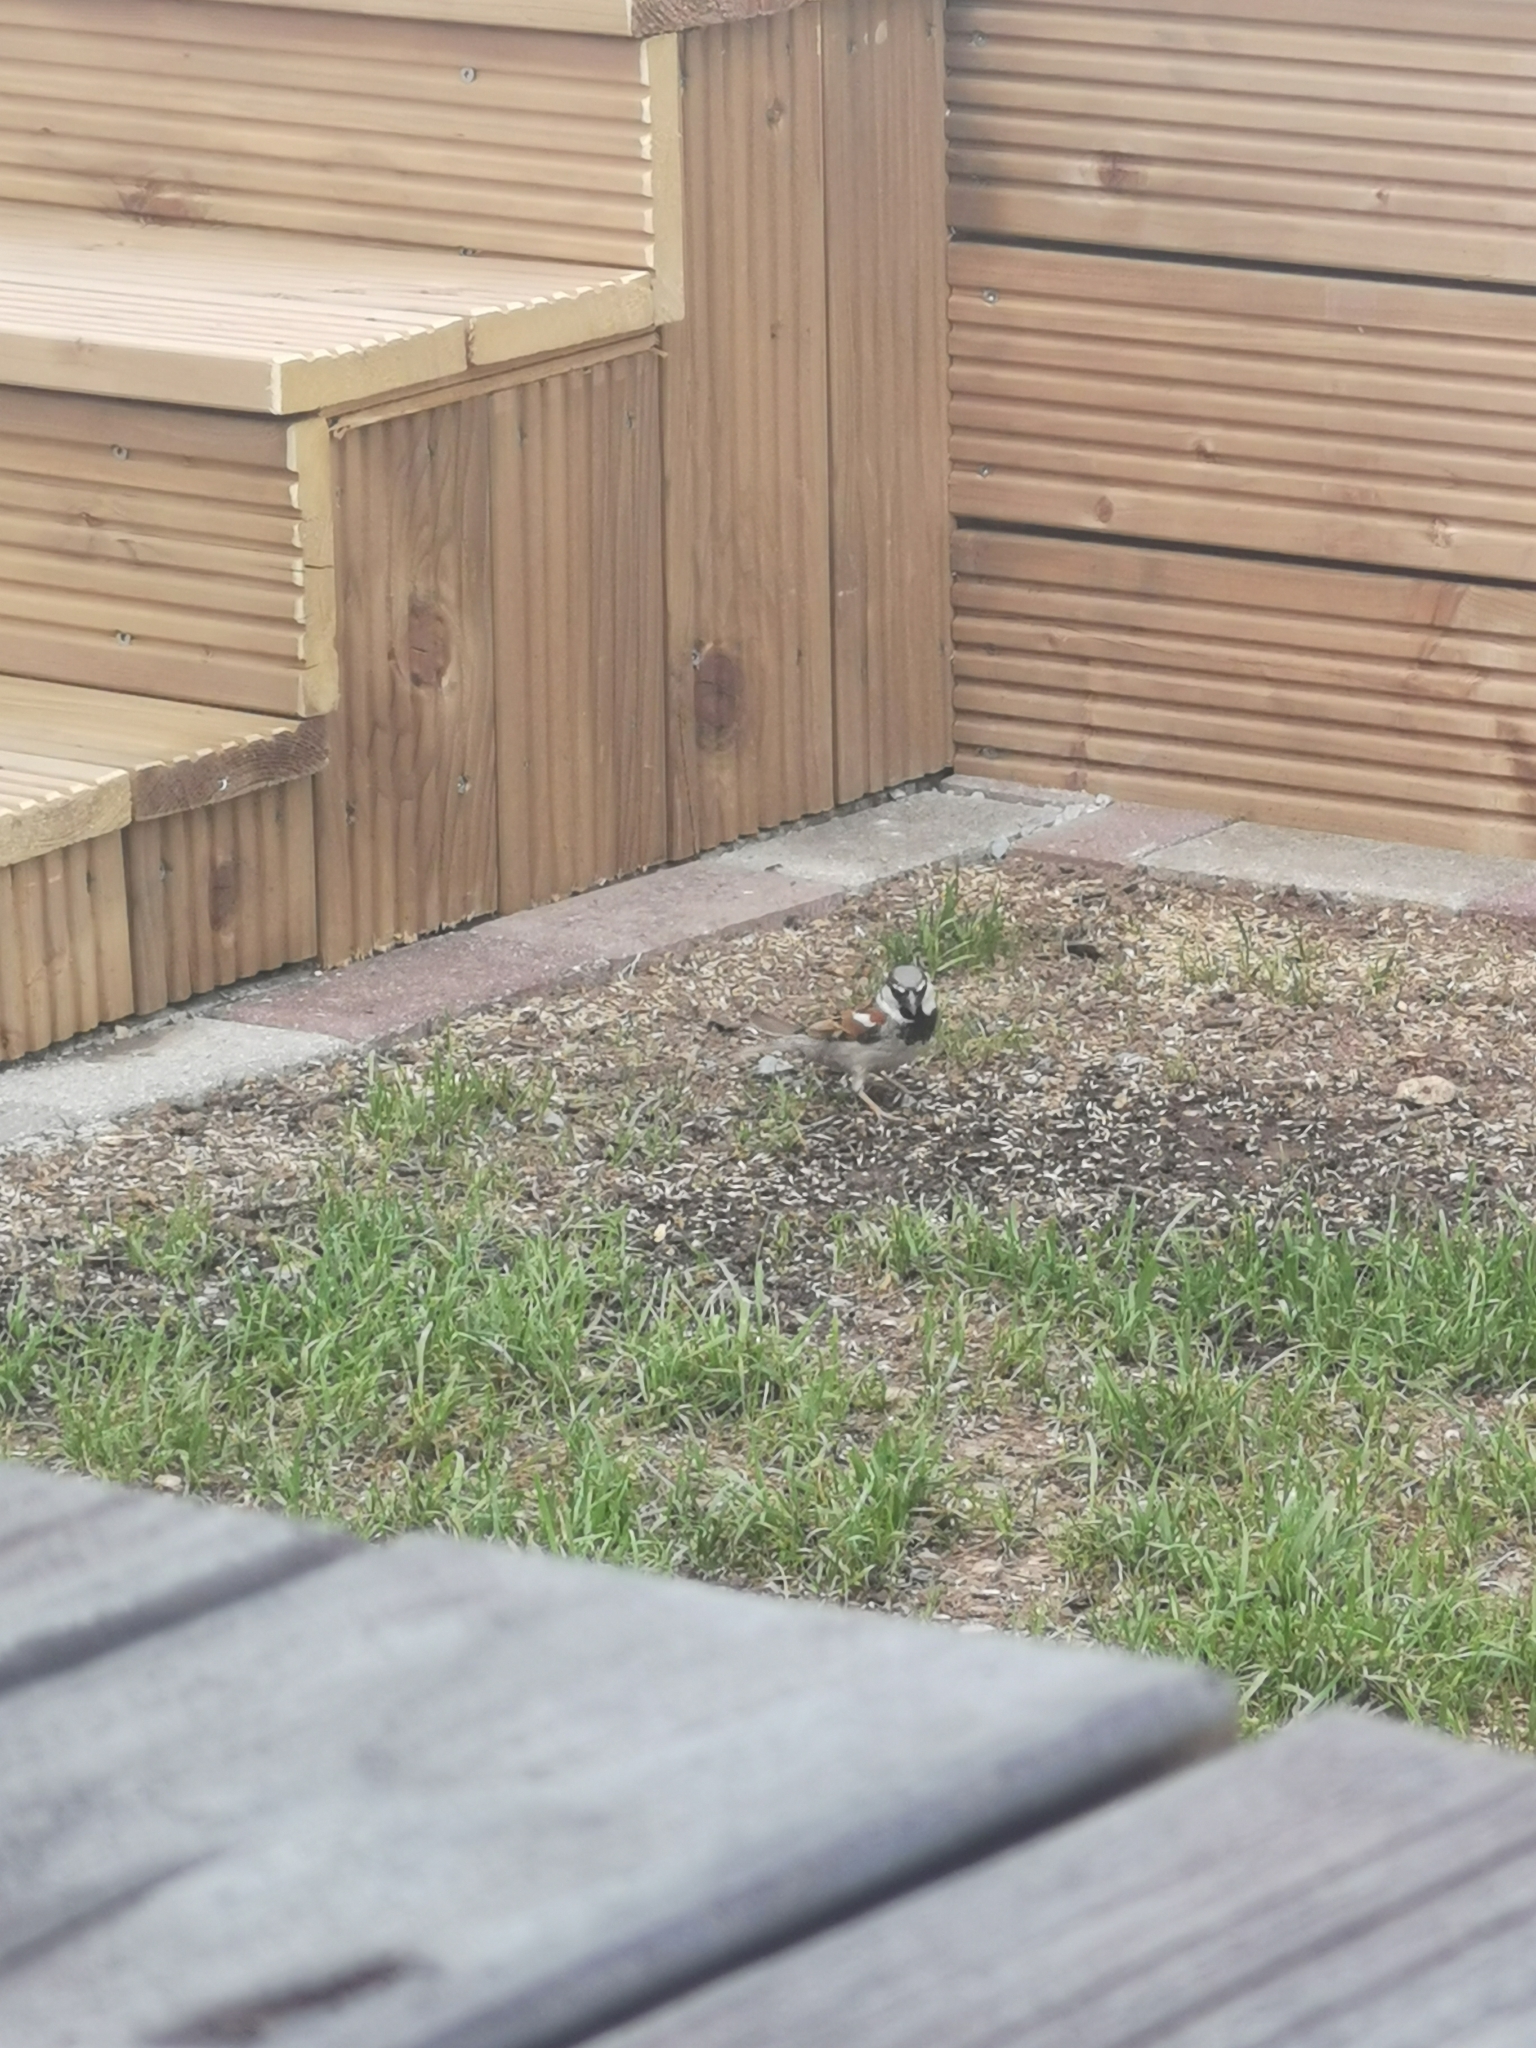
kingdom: Animalia
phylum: Chordata
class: Aves
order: Passeriformes
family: Passeridae
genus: Passer
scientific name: Passer domesticus
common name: House sparrow
